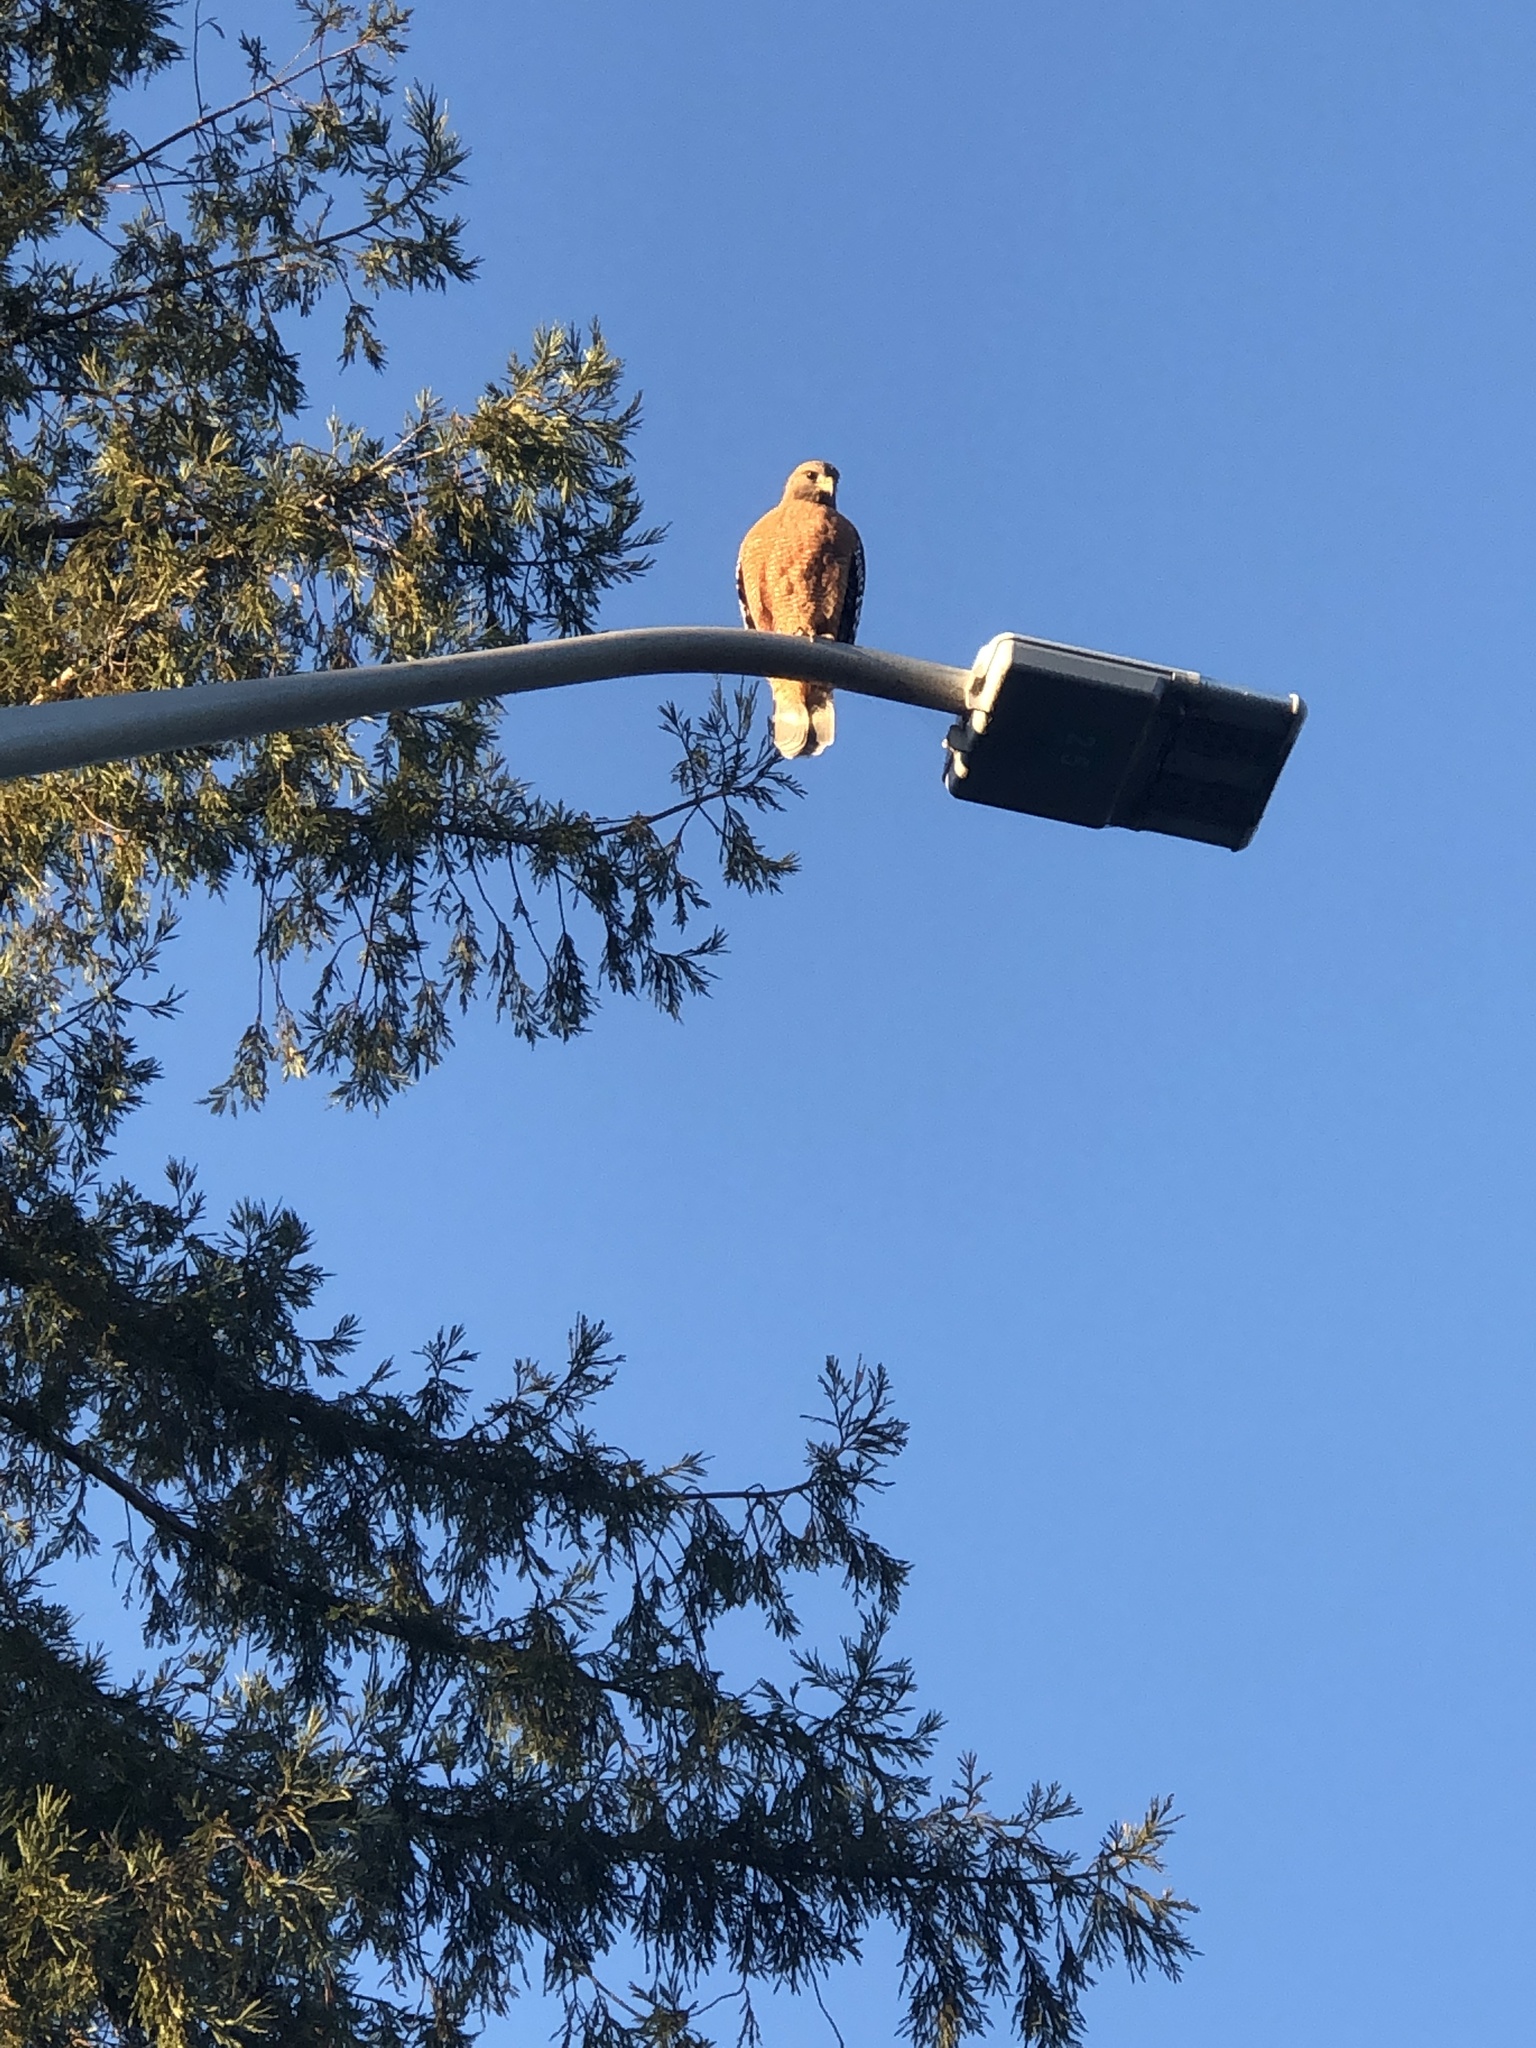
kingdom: Animalia
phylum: Chordata
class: Aves
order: Accipitriformes
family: Accipitridae
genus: Buteo
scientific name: Buteo lineatus
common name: Red-shouldered hawk
